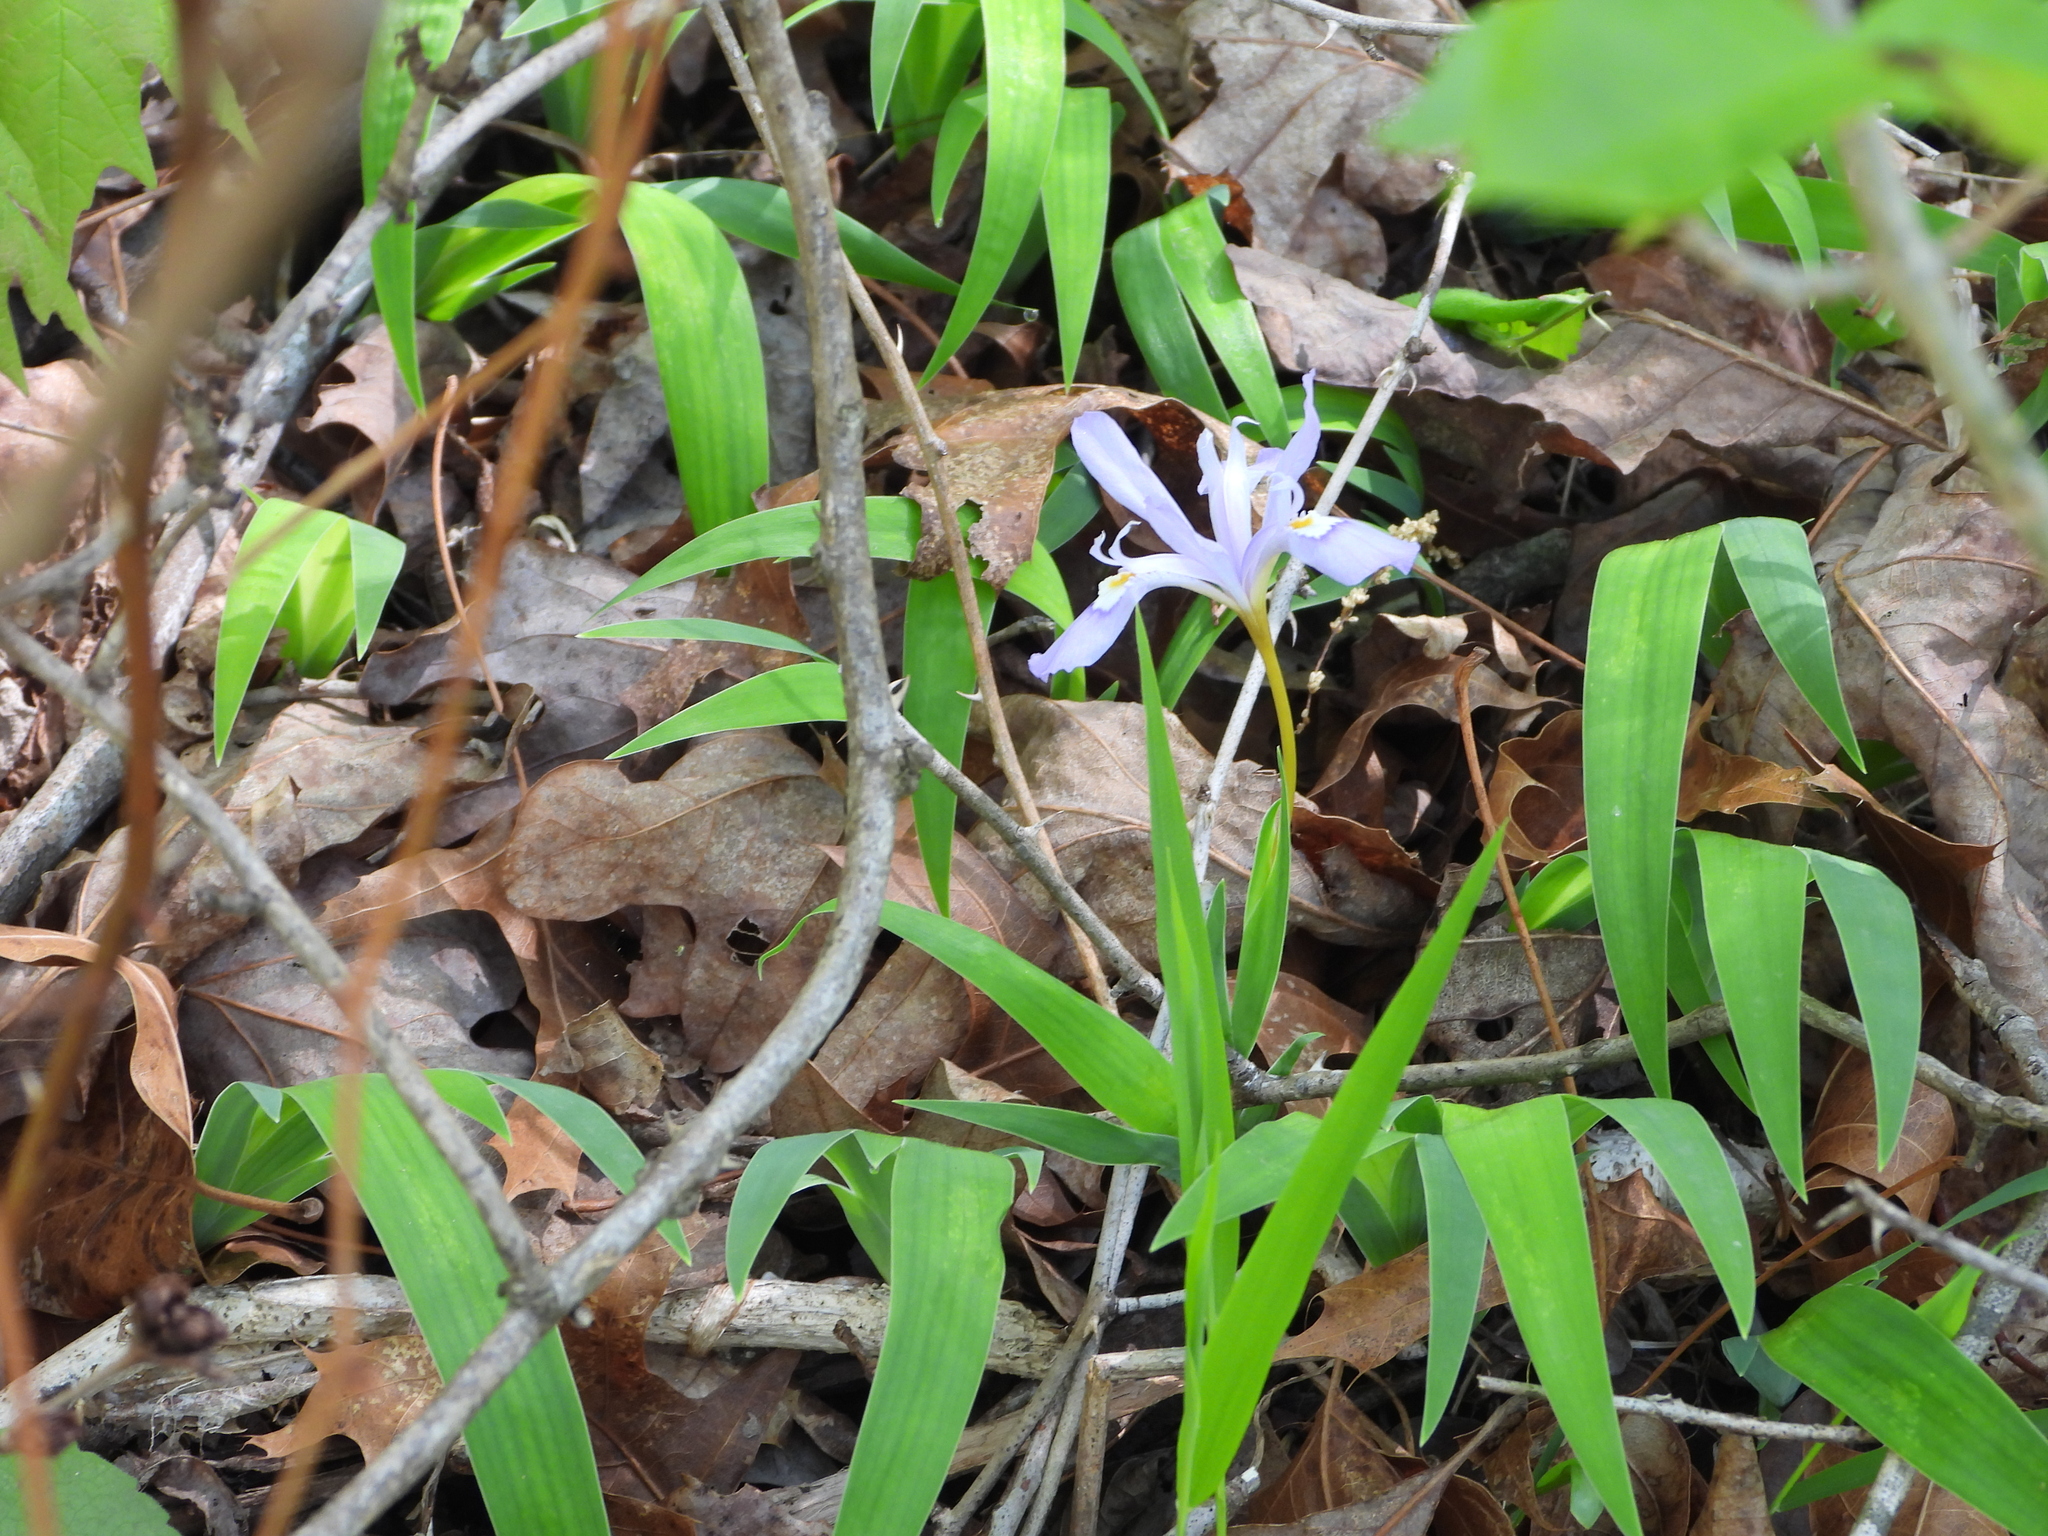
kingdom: Plantae
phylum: Tracheophyta
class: Liliopsida
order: Asparagales
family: Iridaceae
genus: Iris
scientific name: Iris cristata
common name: Crested iris
